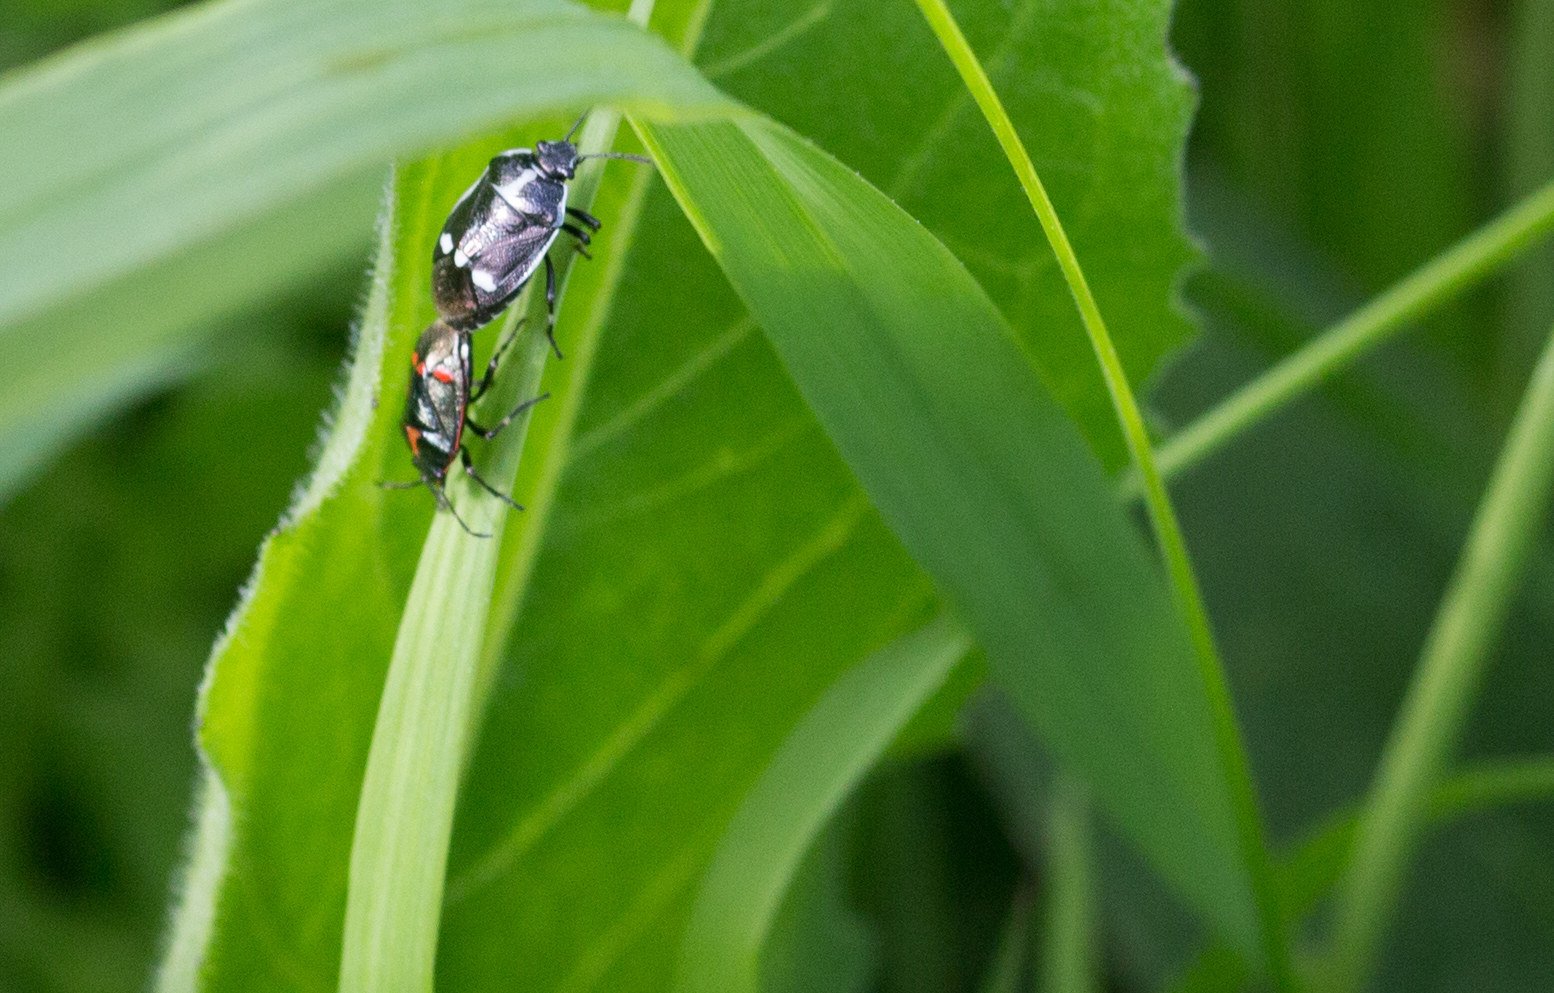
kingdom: Animalia
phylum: Arthropoda
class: Insecta
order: Hemiptera
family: Pentatomidae
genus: Eurydema
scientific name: Eurydema oleracea
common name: Cabbage bug
